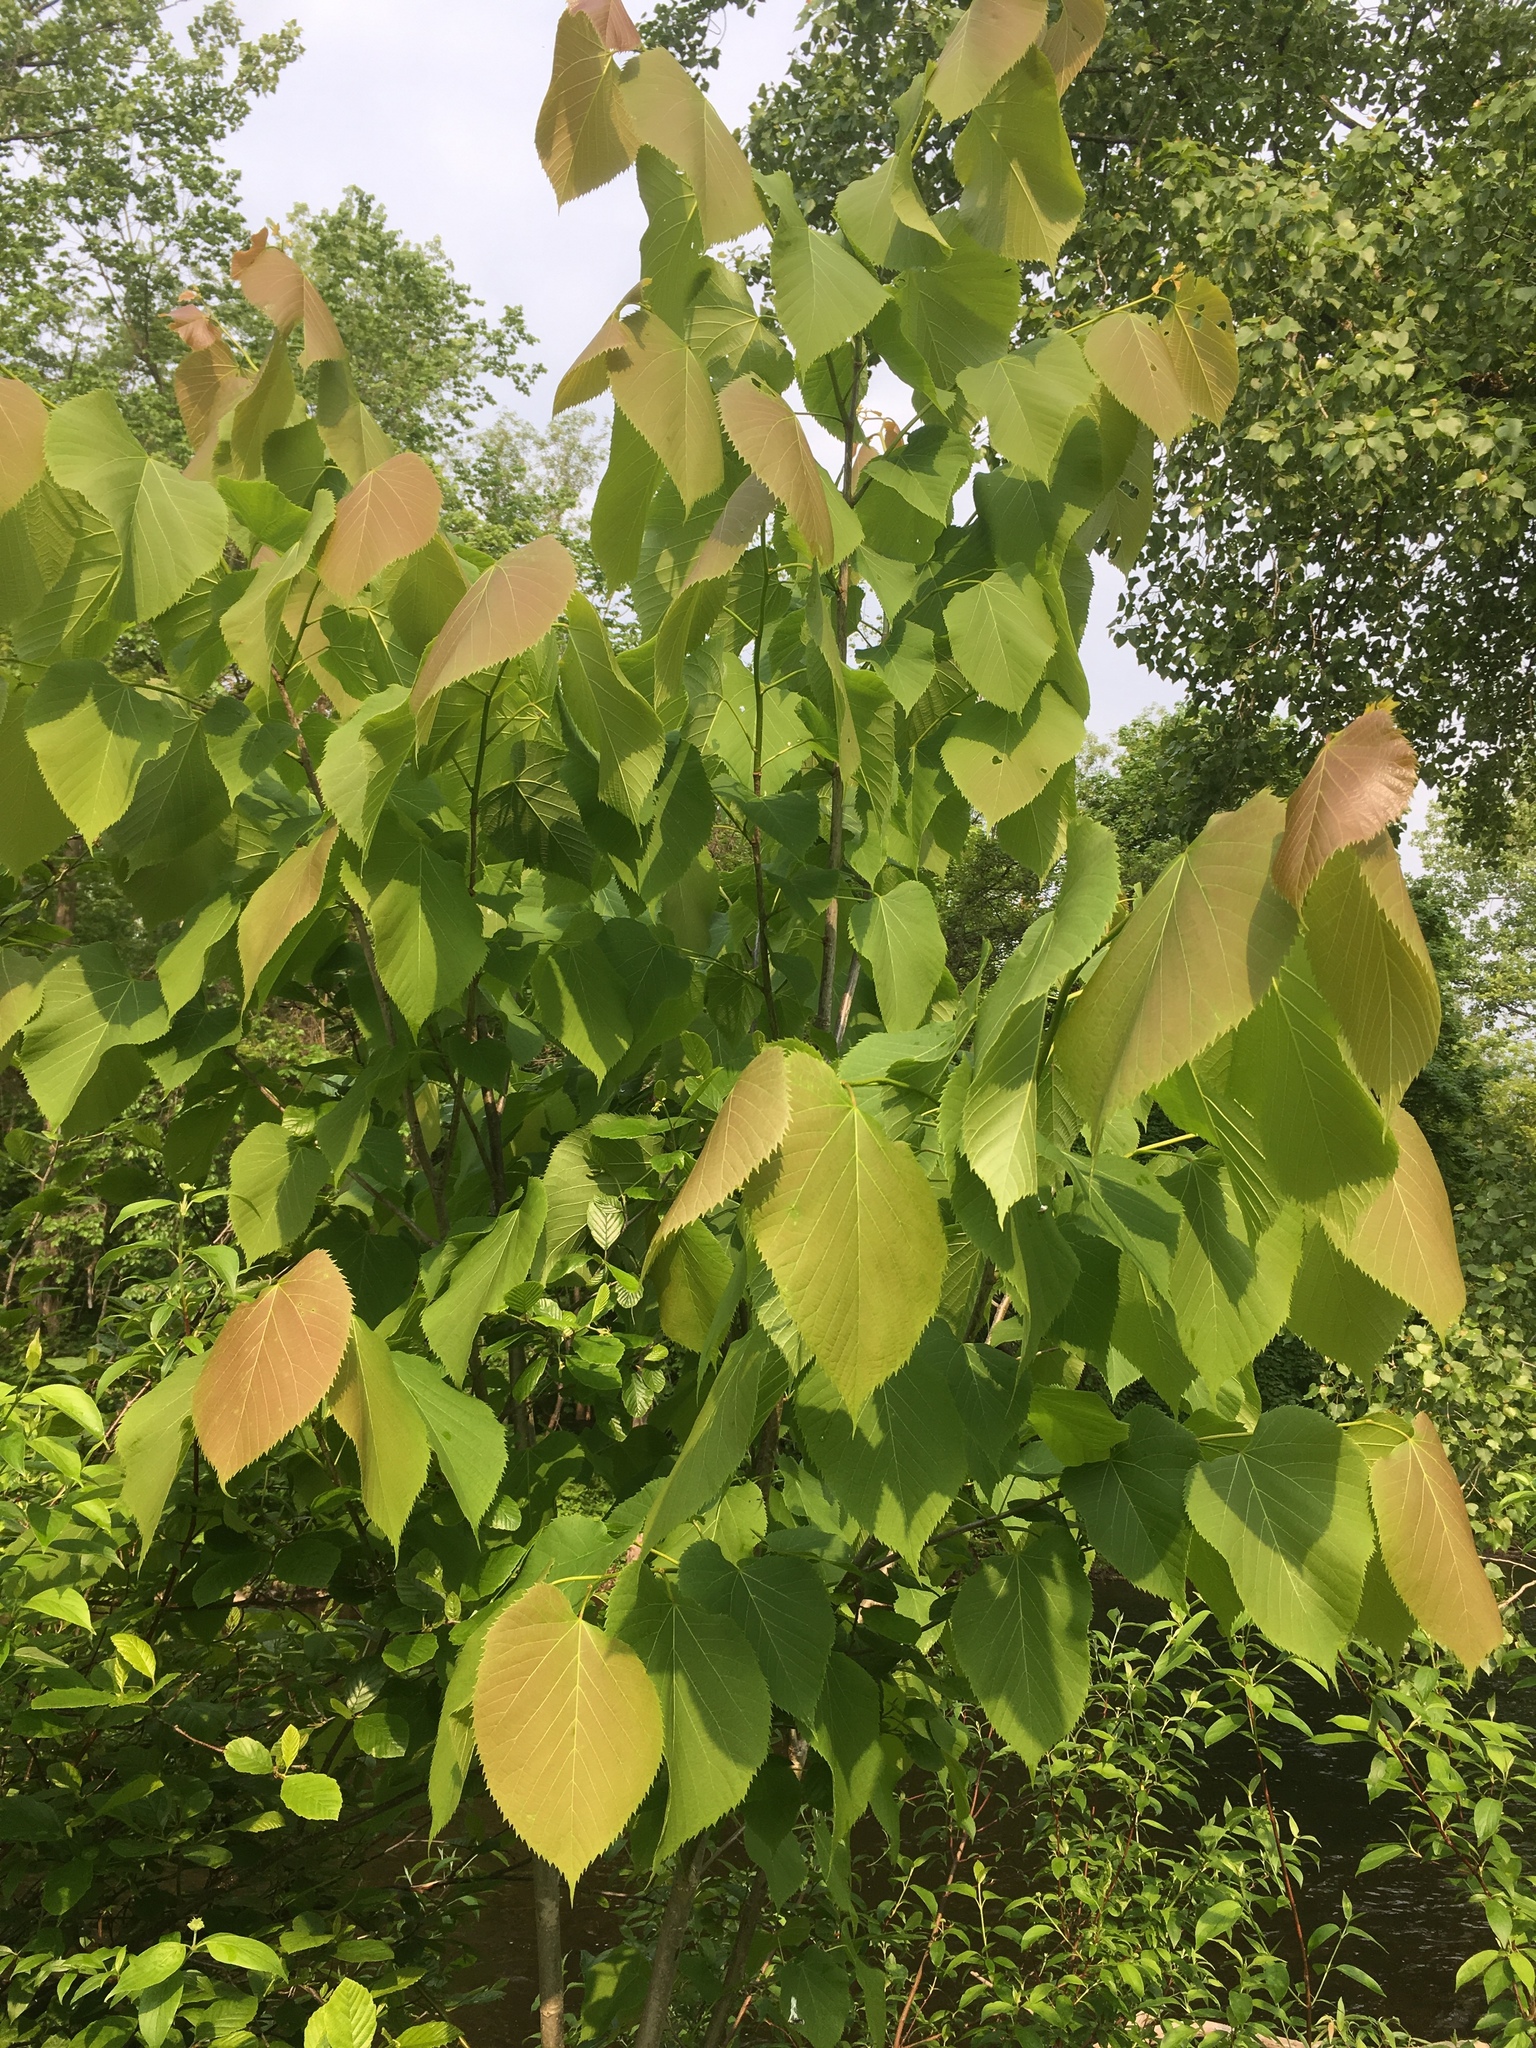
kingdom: Plantae
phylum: Tracheophyta
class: Magnoliopsida
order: Malvales
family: Malvaceae
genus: Tilia
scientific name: Tilia americana
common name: Basswood
